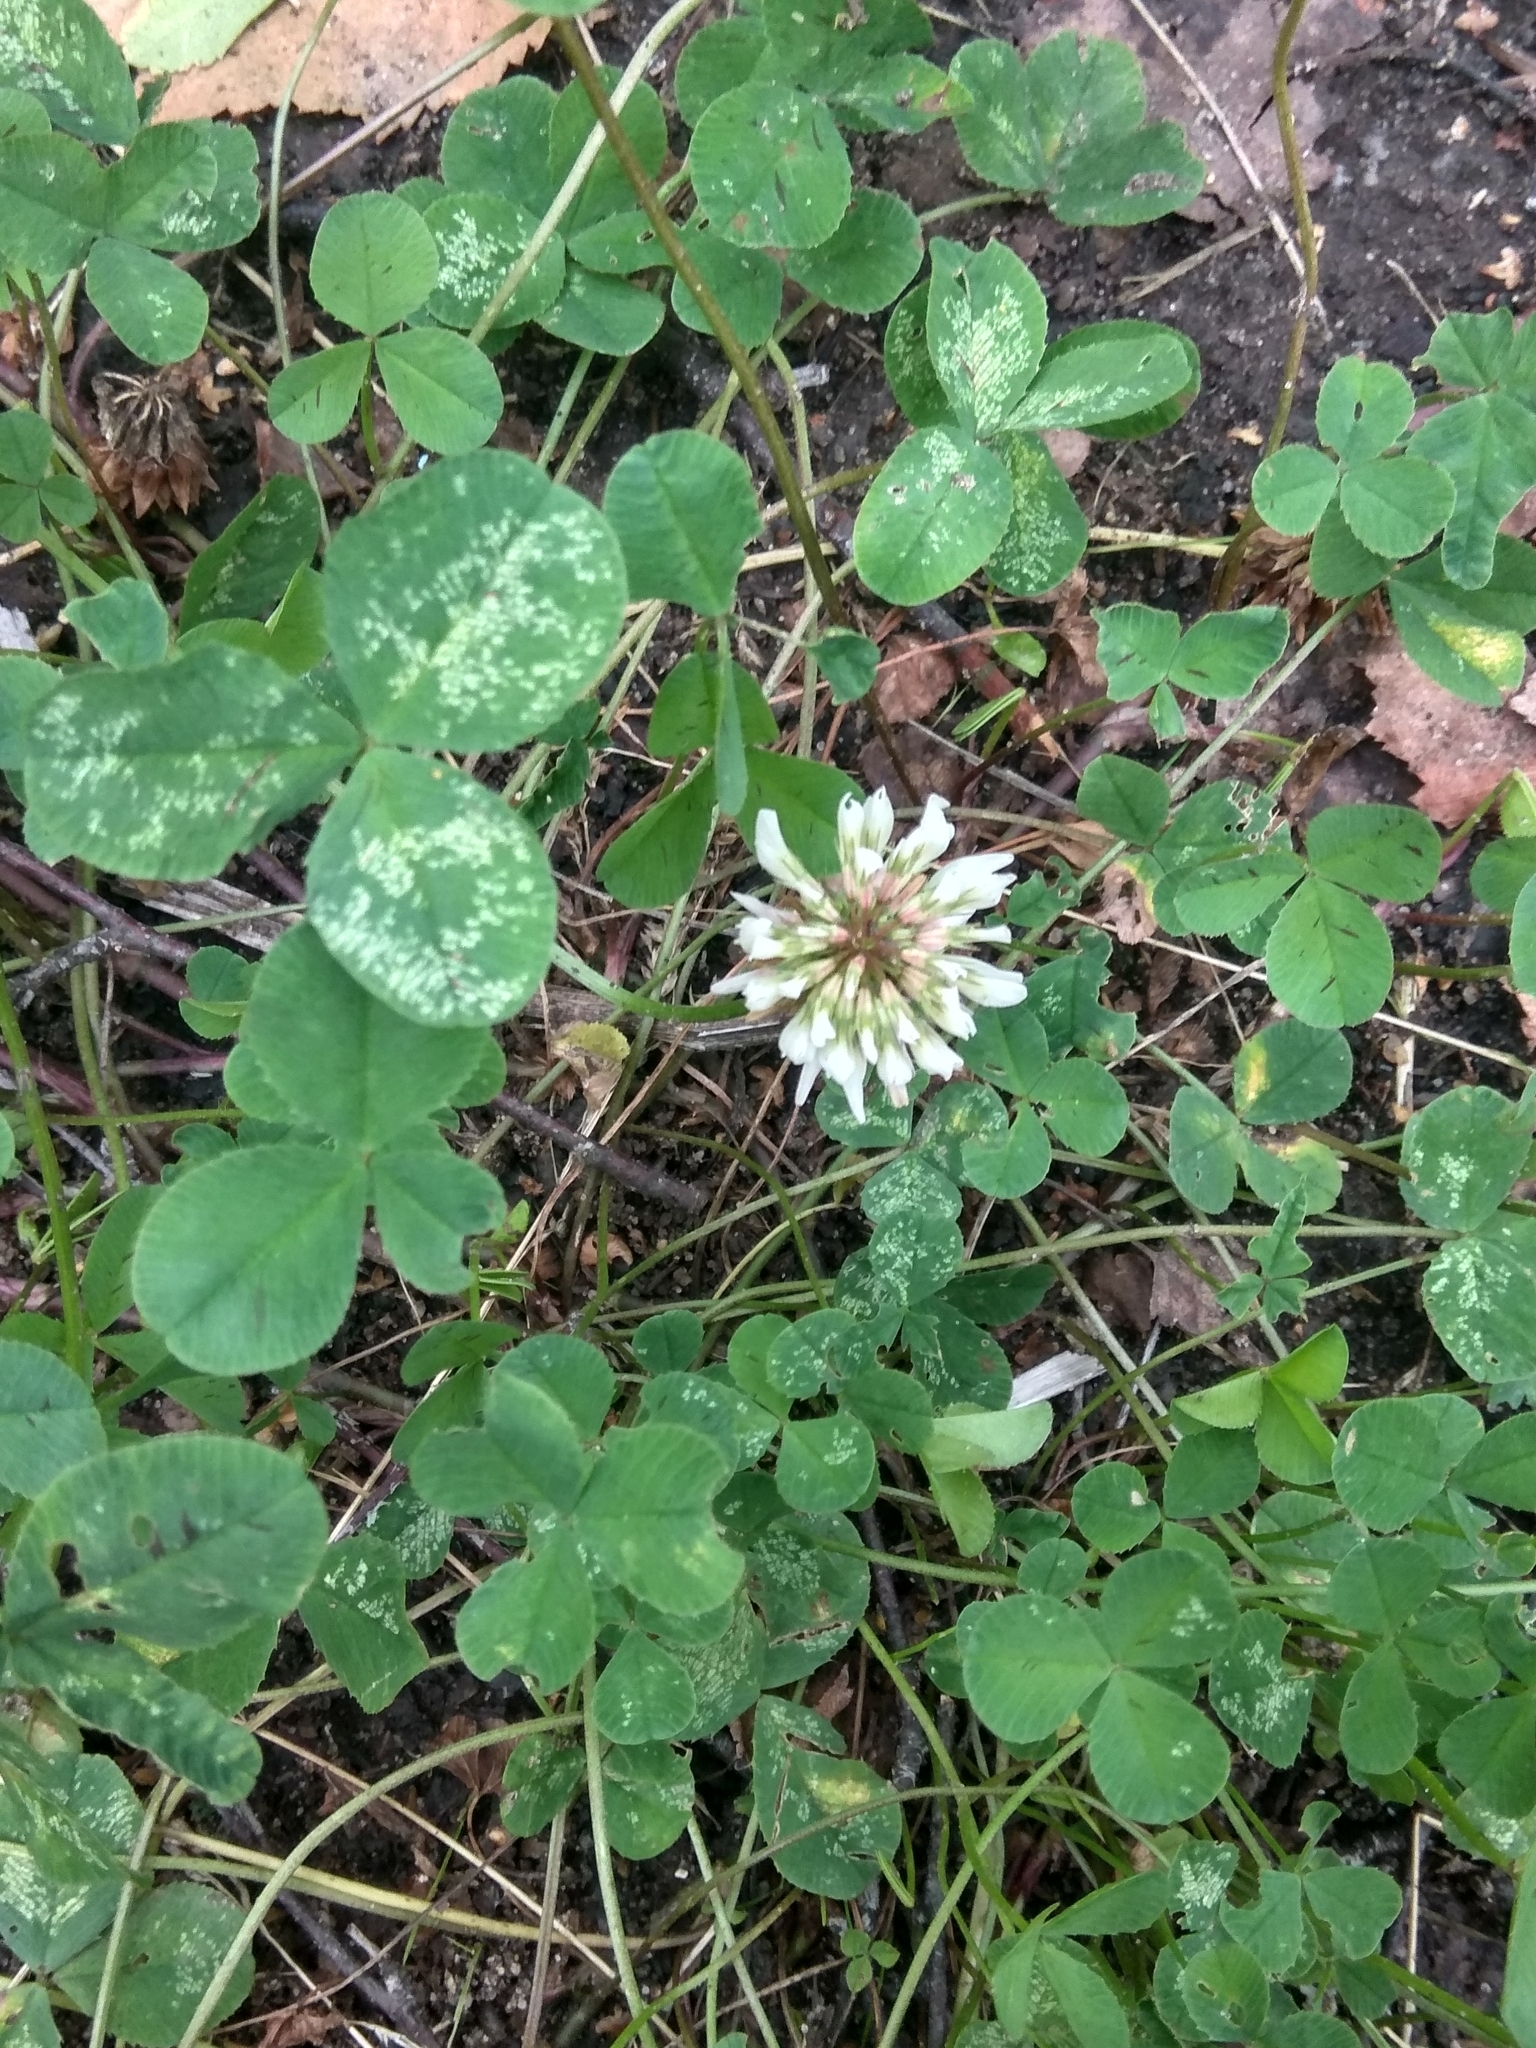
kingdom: Plantae
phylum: Tracheophyta
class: Magnoliopsida
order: Fabales
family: Fabaceae
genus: Trifolium
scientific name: Trifolium repens
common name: White clover
